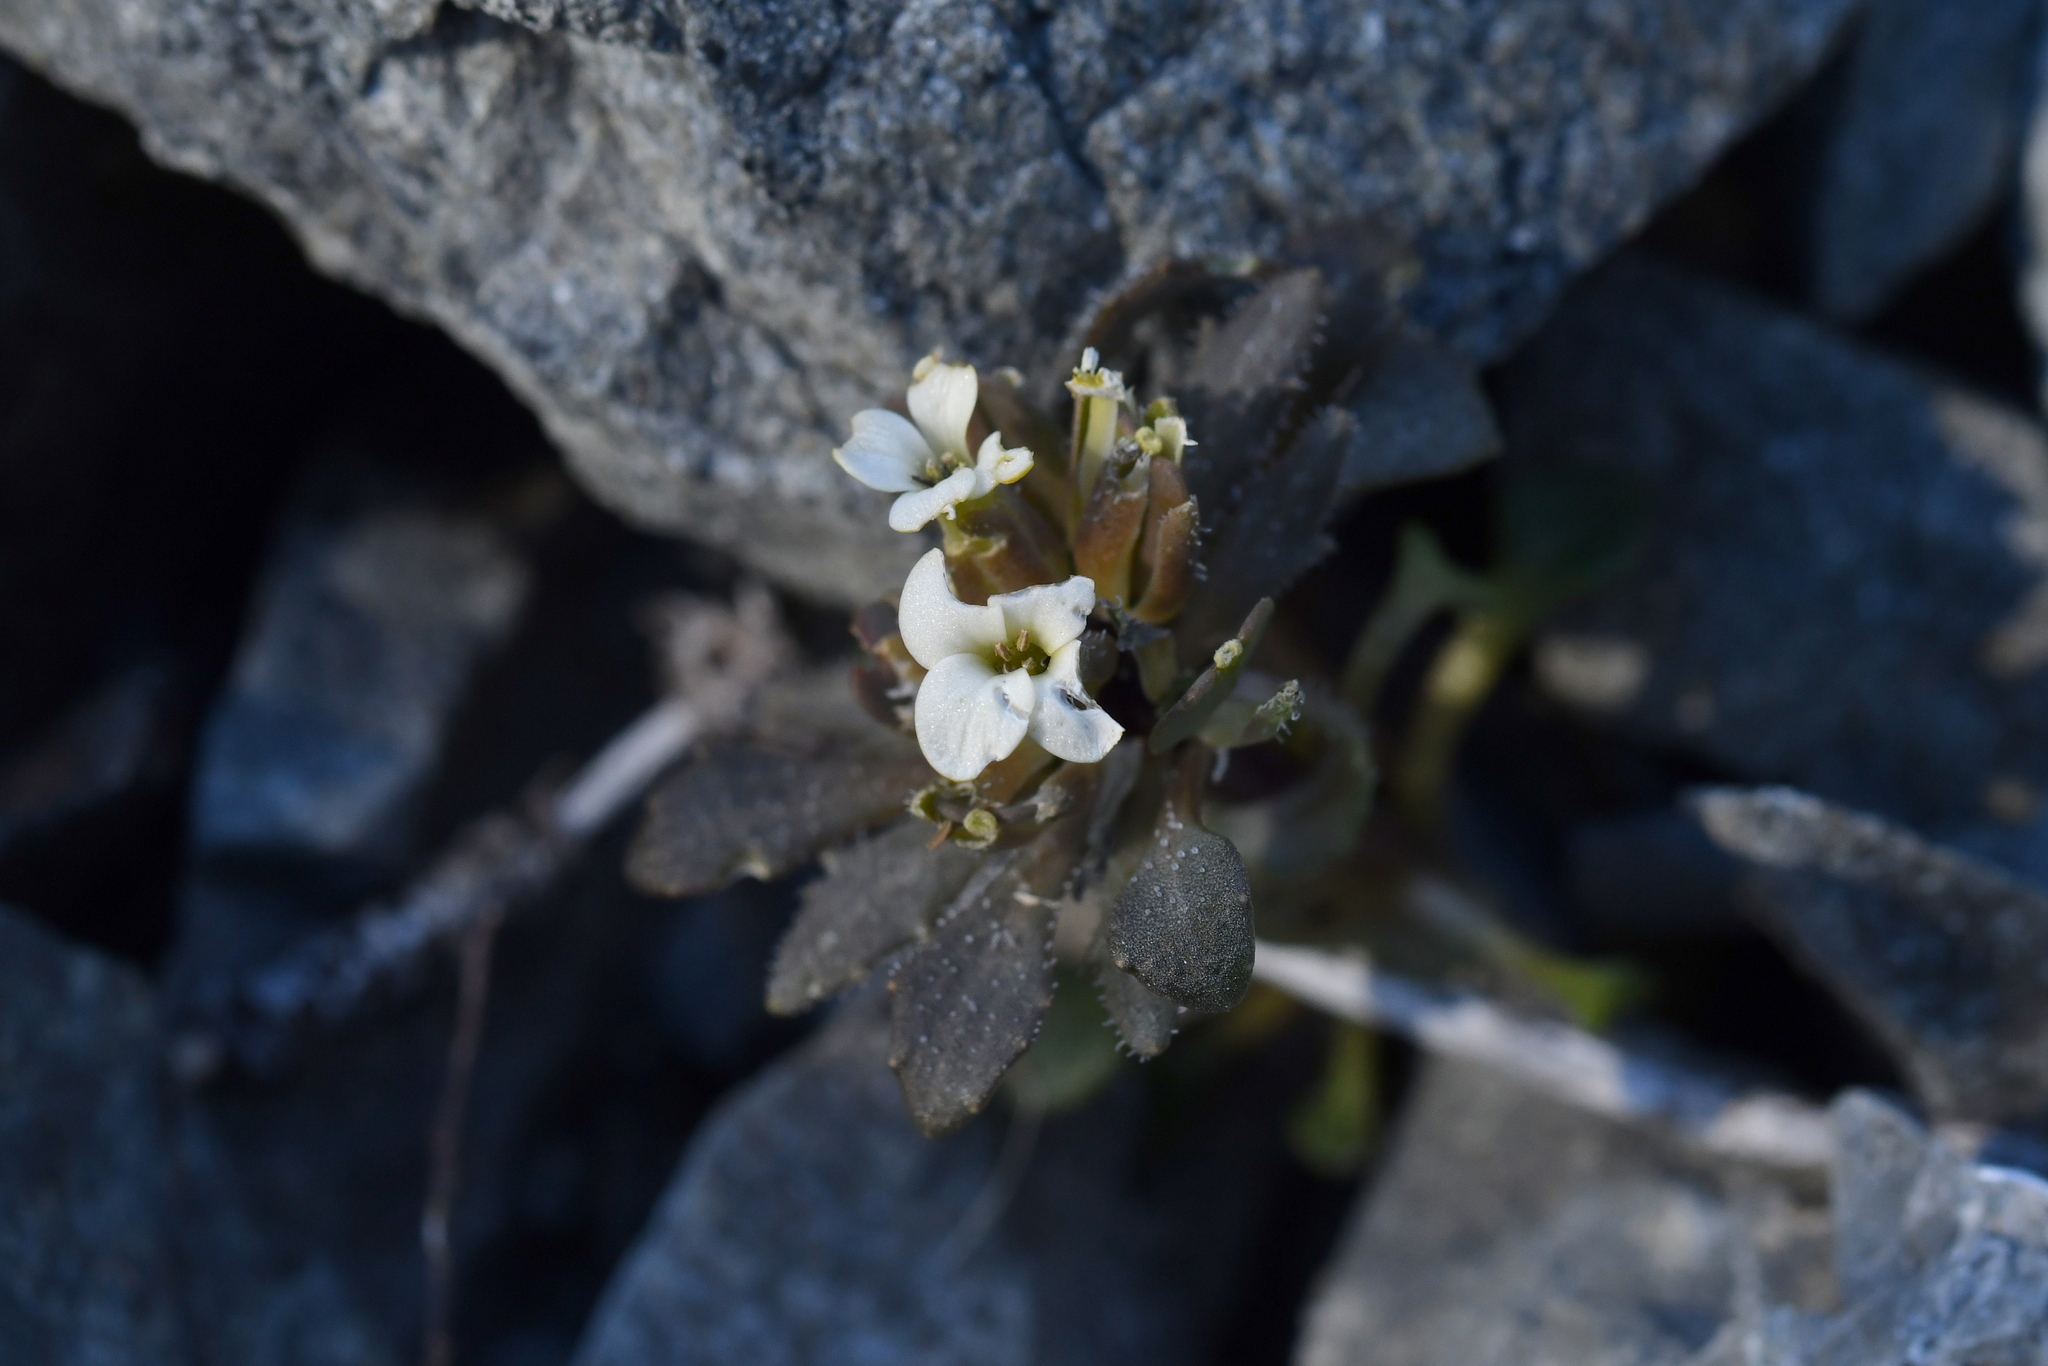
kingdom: Plantae
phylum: Tracheophyta
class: Magnoliopsida
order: Brassicales
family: Brassicaceae
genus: Notothlaspi
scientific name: Notothlaspi rosulatum
